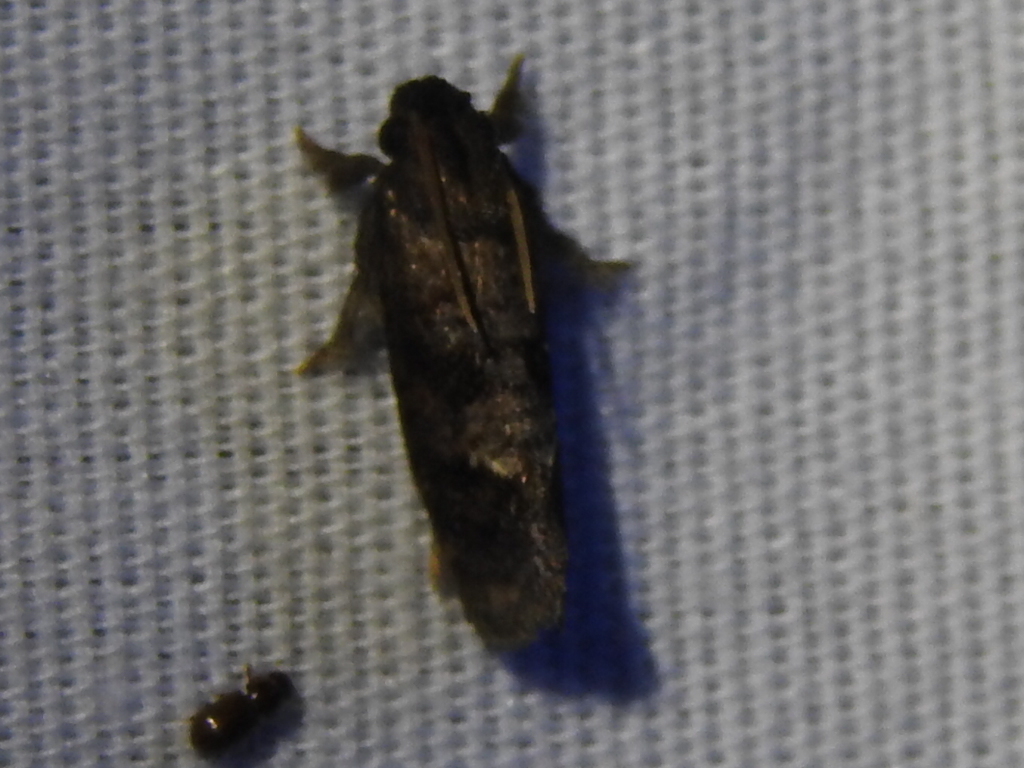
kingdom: Animalia
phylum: Arthropoda
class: Insecta
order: Lepidoptera
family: Tineidae
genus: Acrolophus
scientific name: Acrolophus texanella
